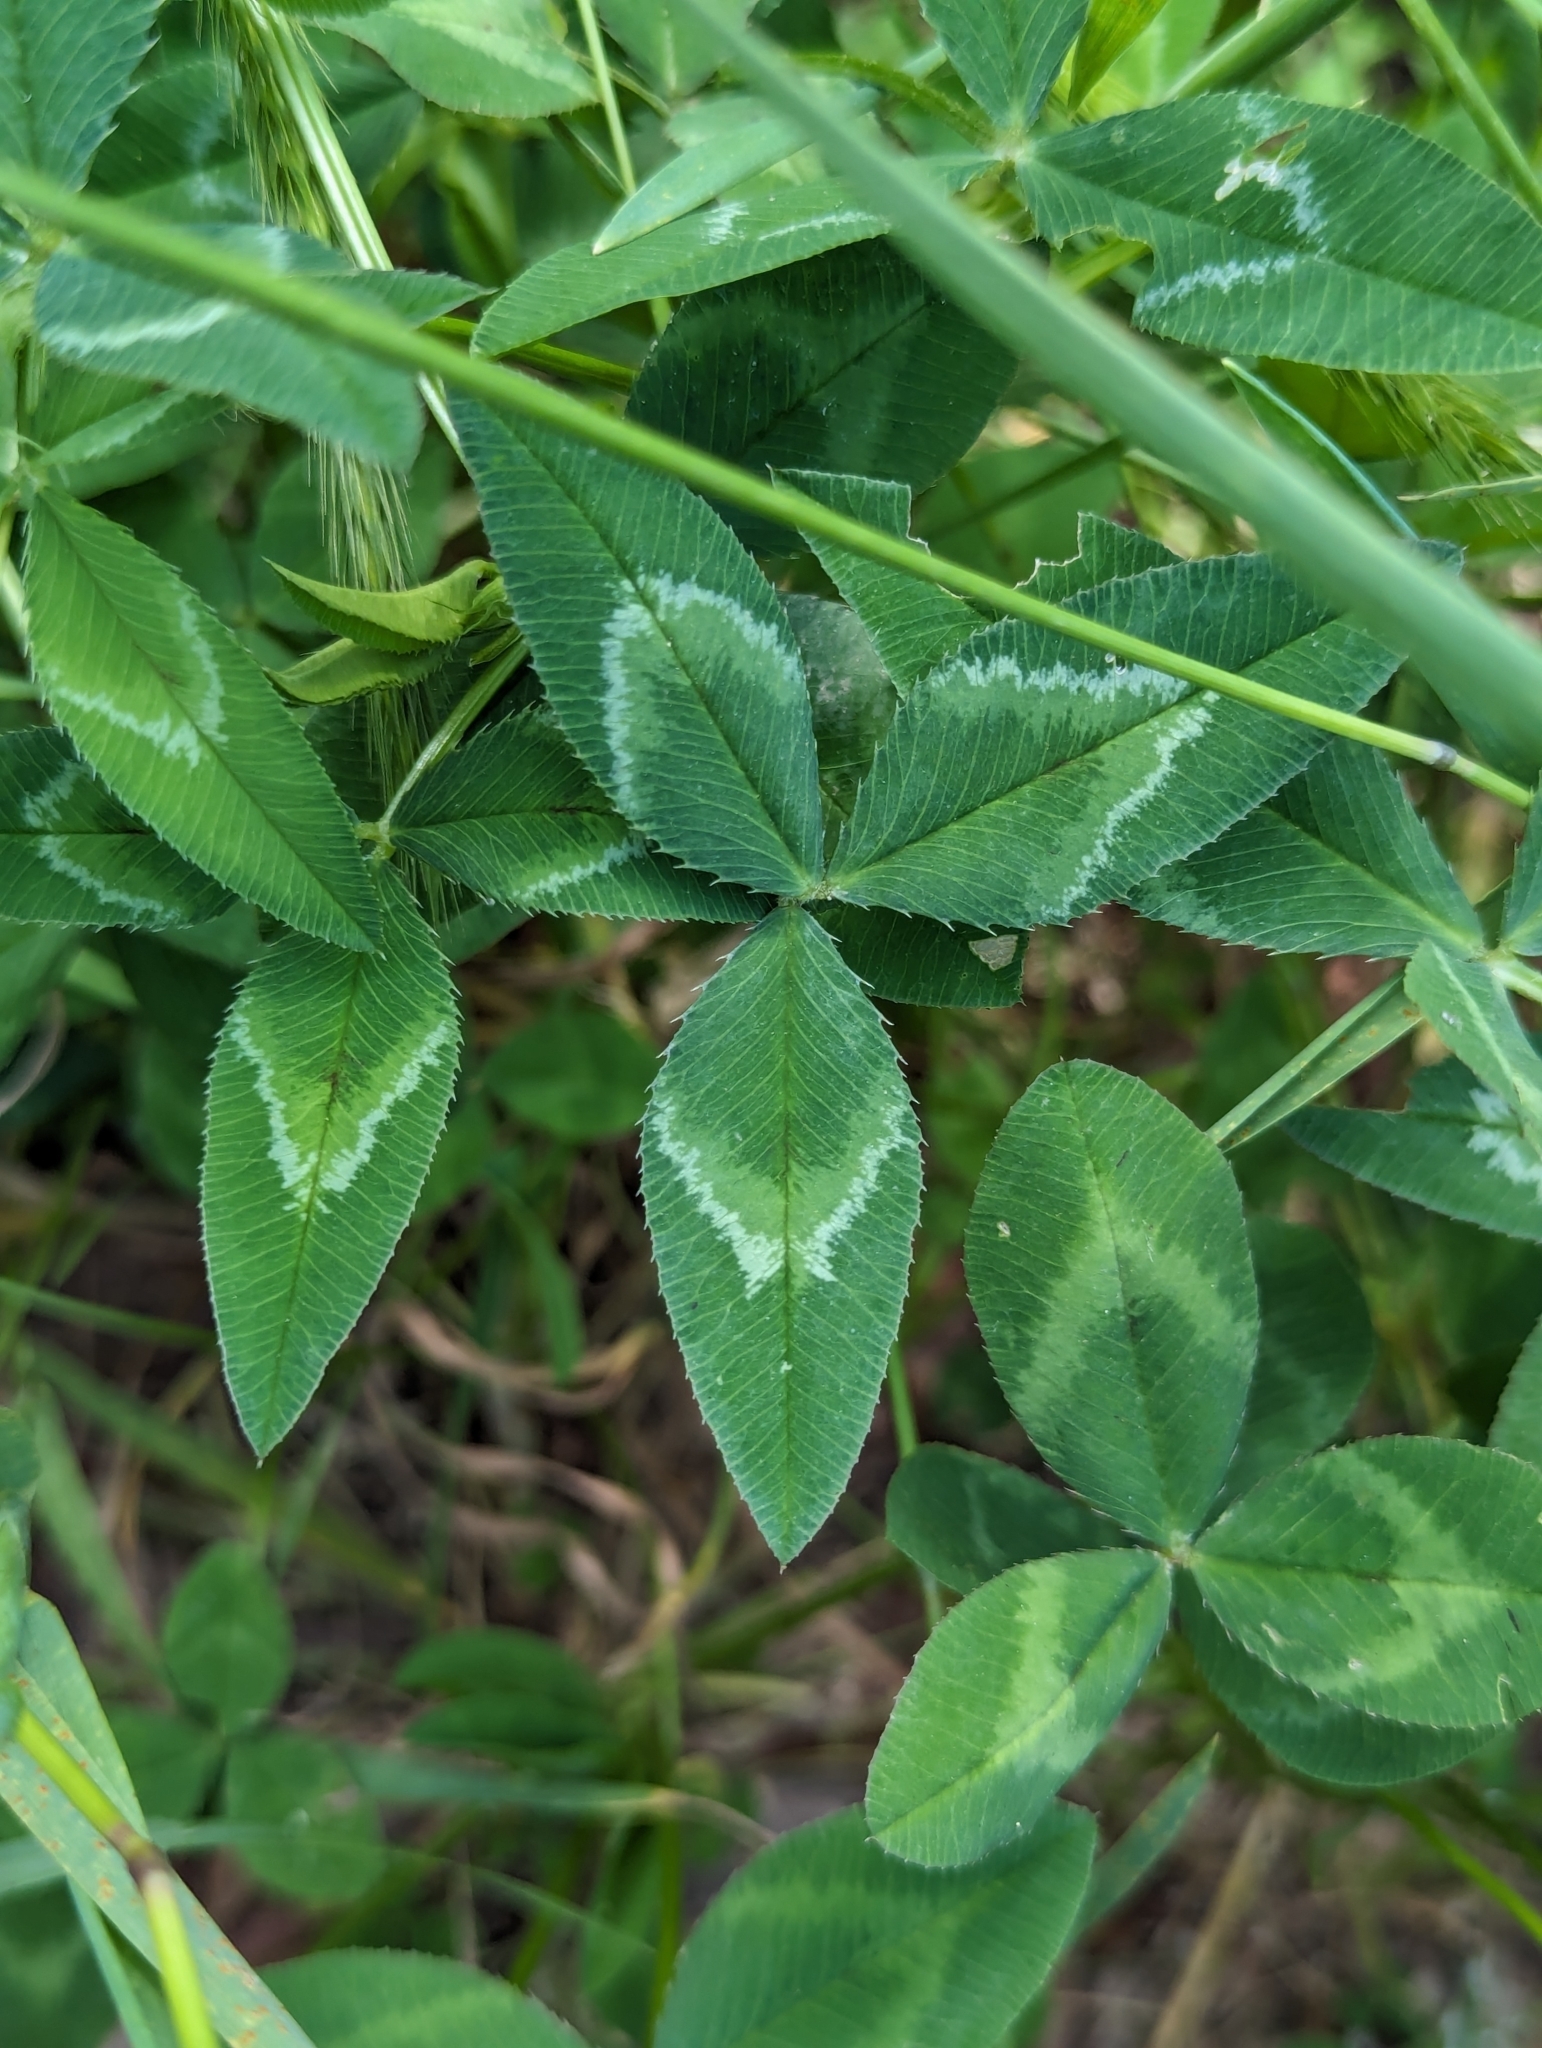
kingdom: Plantae
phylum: Tracheophyta
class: Magnoliopsida
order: Fabales
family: Fabaceae
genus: Trifolium
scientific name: Trifolium vesiculosum
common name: Arrowleaf clover
